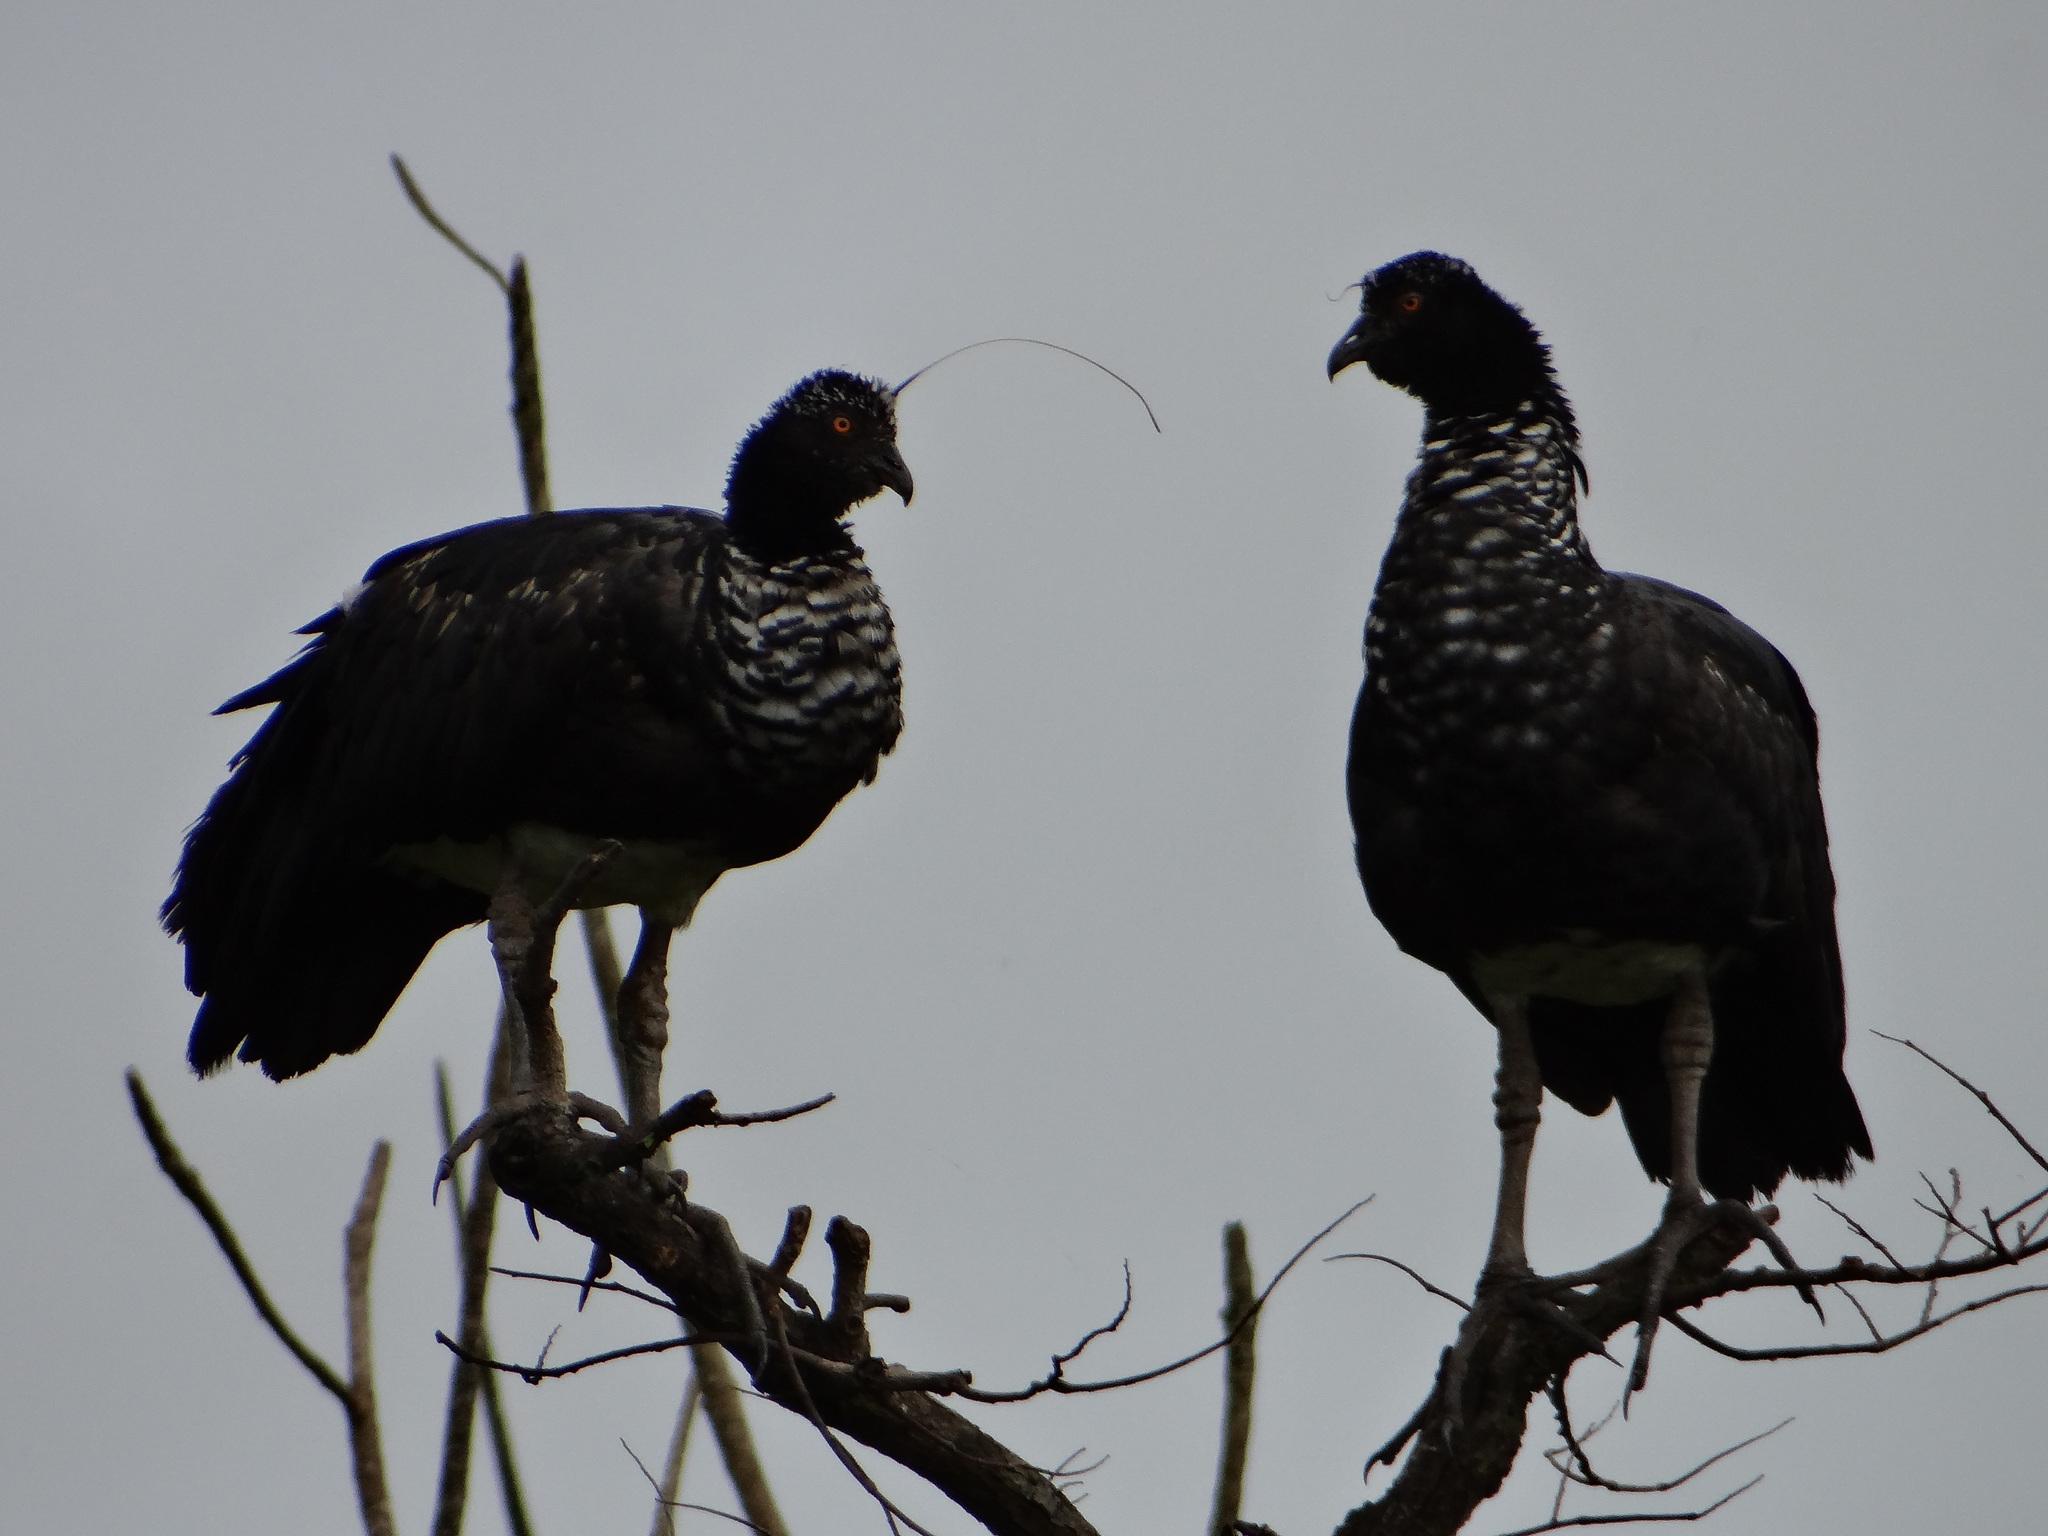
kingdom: Animalia
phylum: Chordata
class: Aves
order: Anseriformes
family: Anhimidae
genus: Anhima
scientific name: Anhima cornuta
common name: Horned screamer
